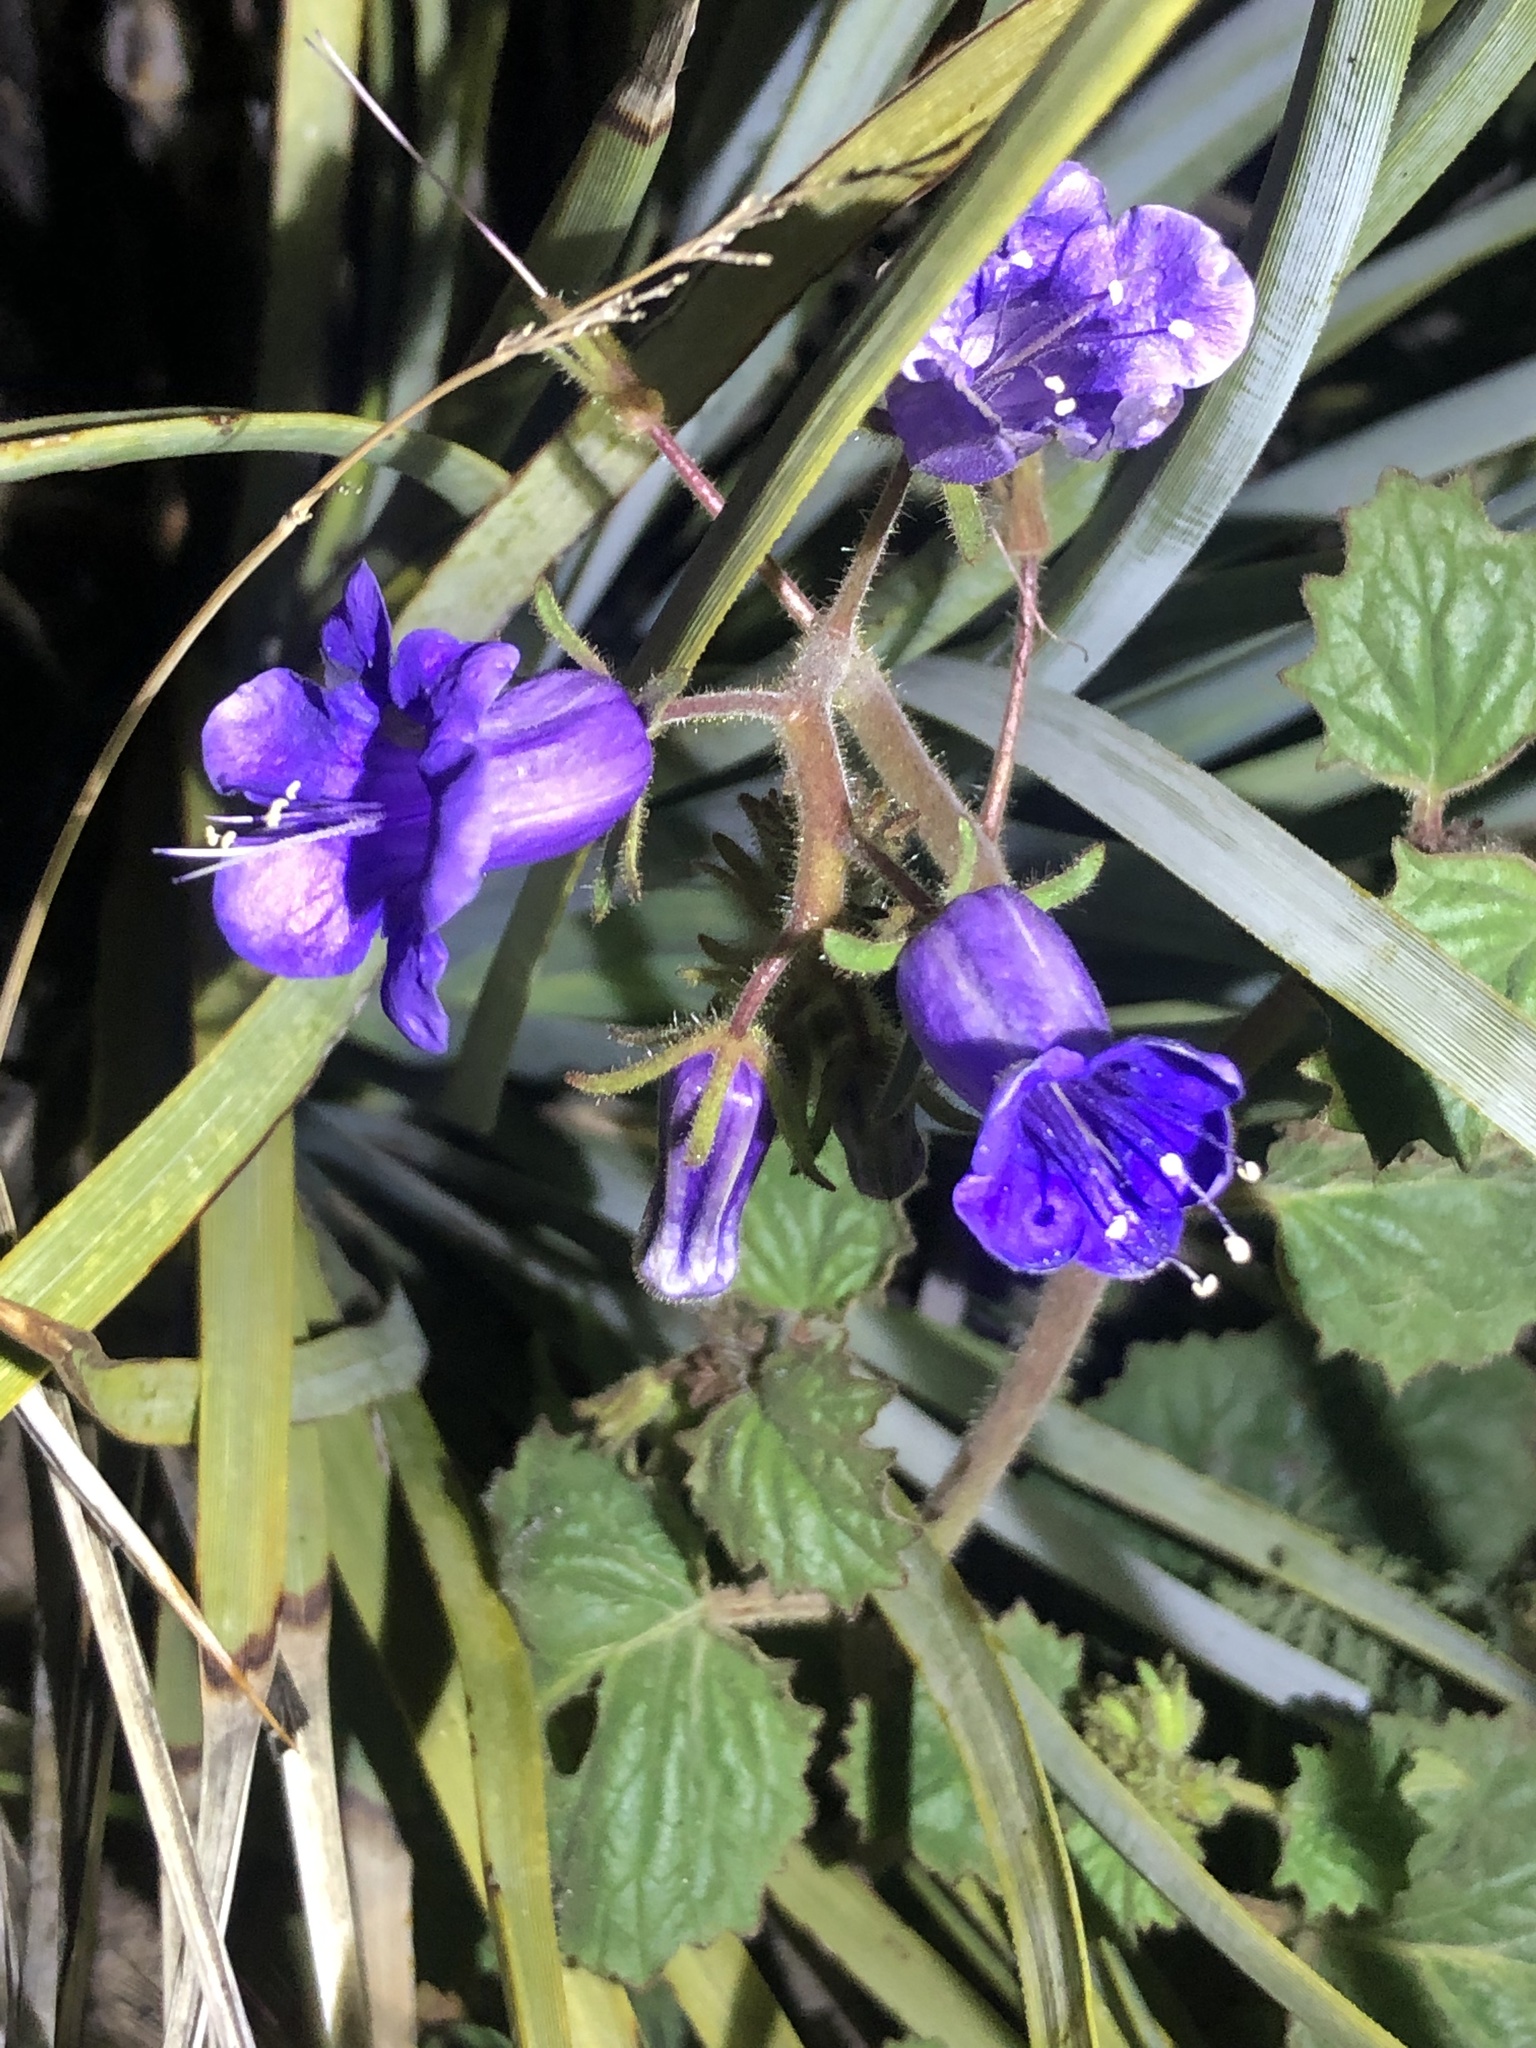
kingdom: Plantae
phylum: Tracheophyta
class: Magnoliopsida
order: Boraginales
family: Hydrophyllaceae
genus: Phacelia
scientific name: Phacelia minor
